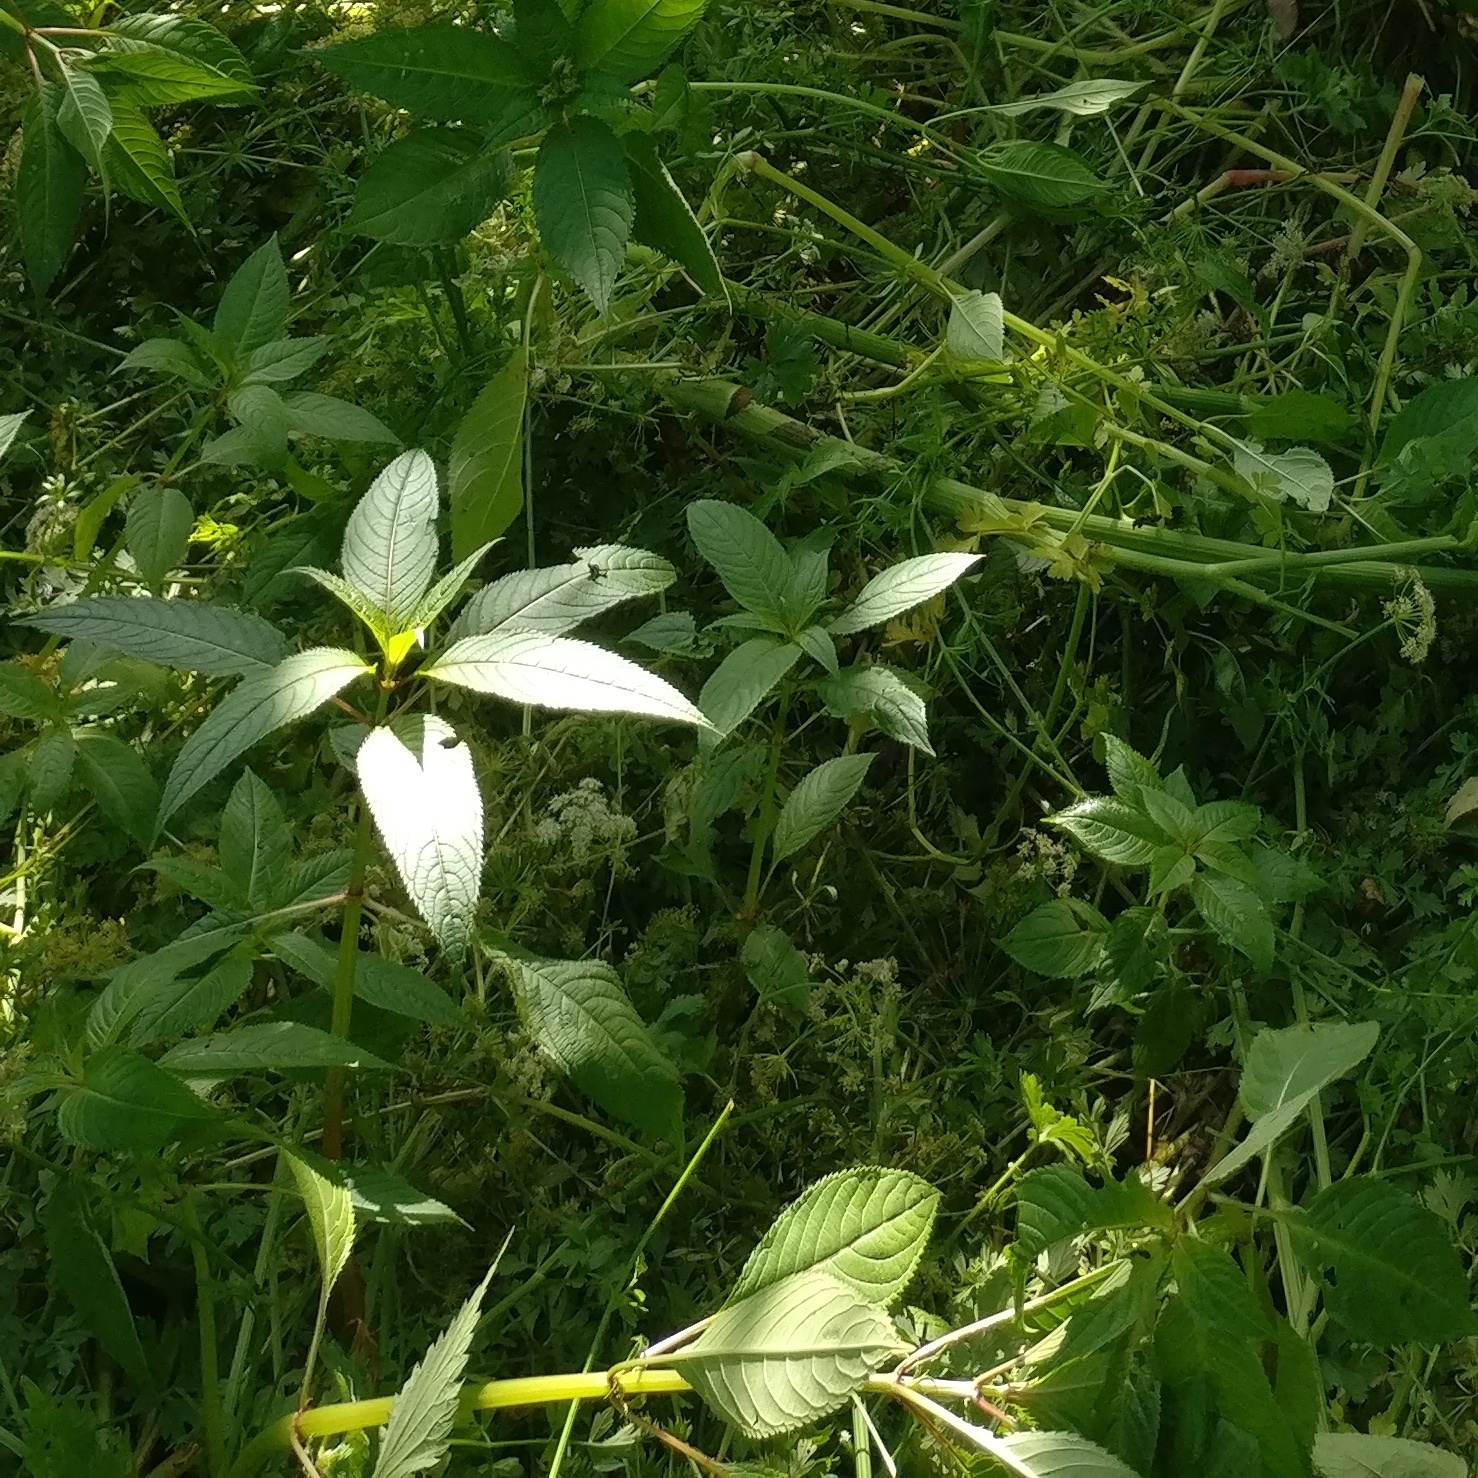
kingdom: Plantae
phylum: Tracheophyta
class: Magnoliopsida
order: Ericales
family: Balsaminaceae
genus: Impatiens
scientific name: Impatiens glandulifera
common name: Himalayan balsam
